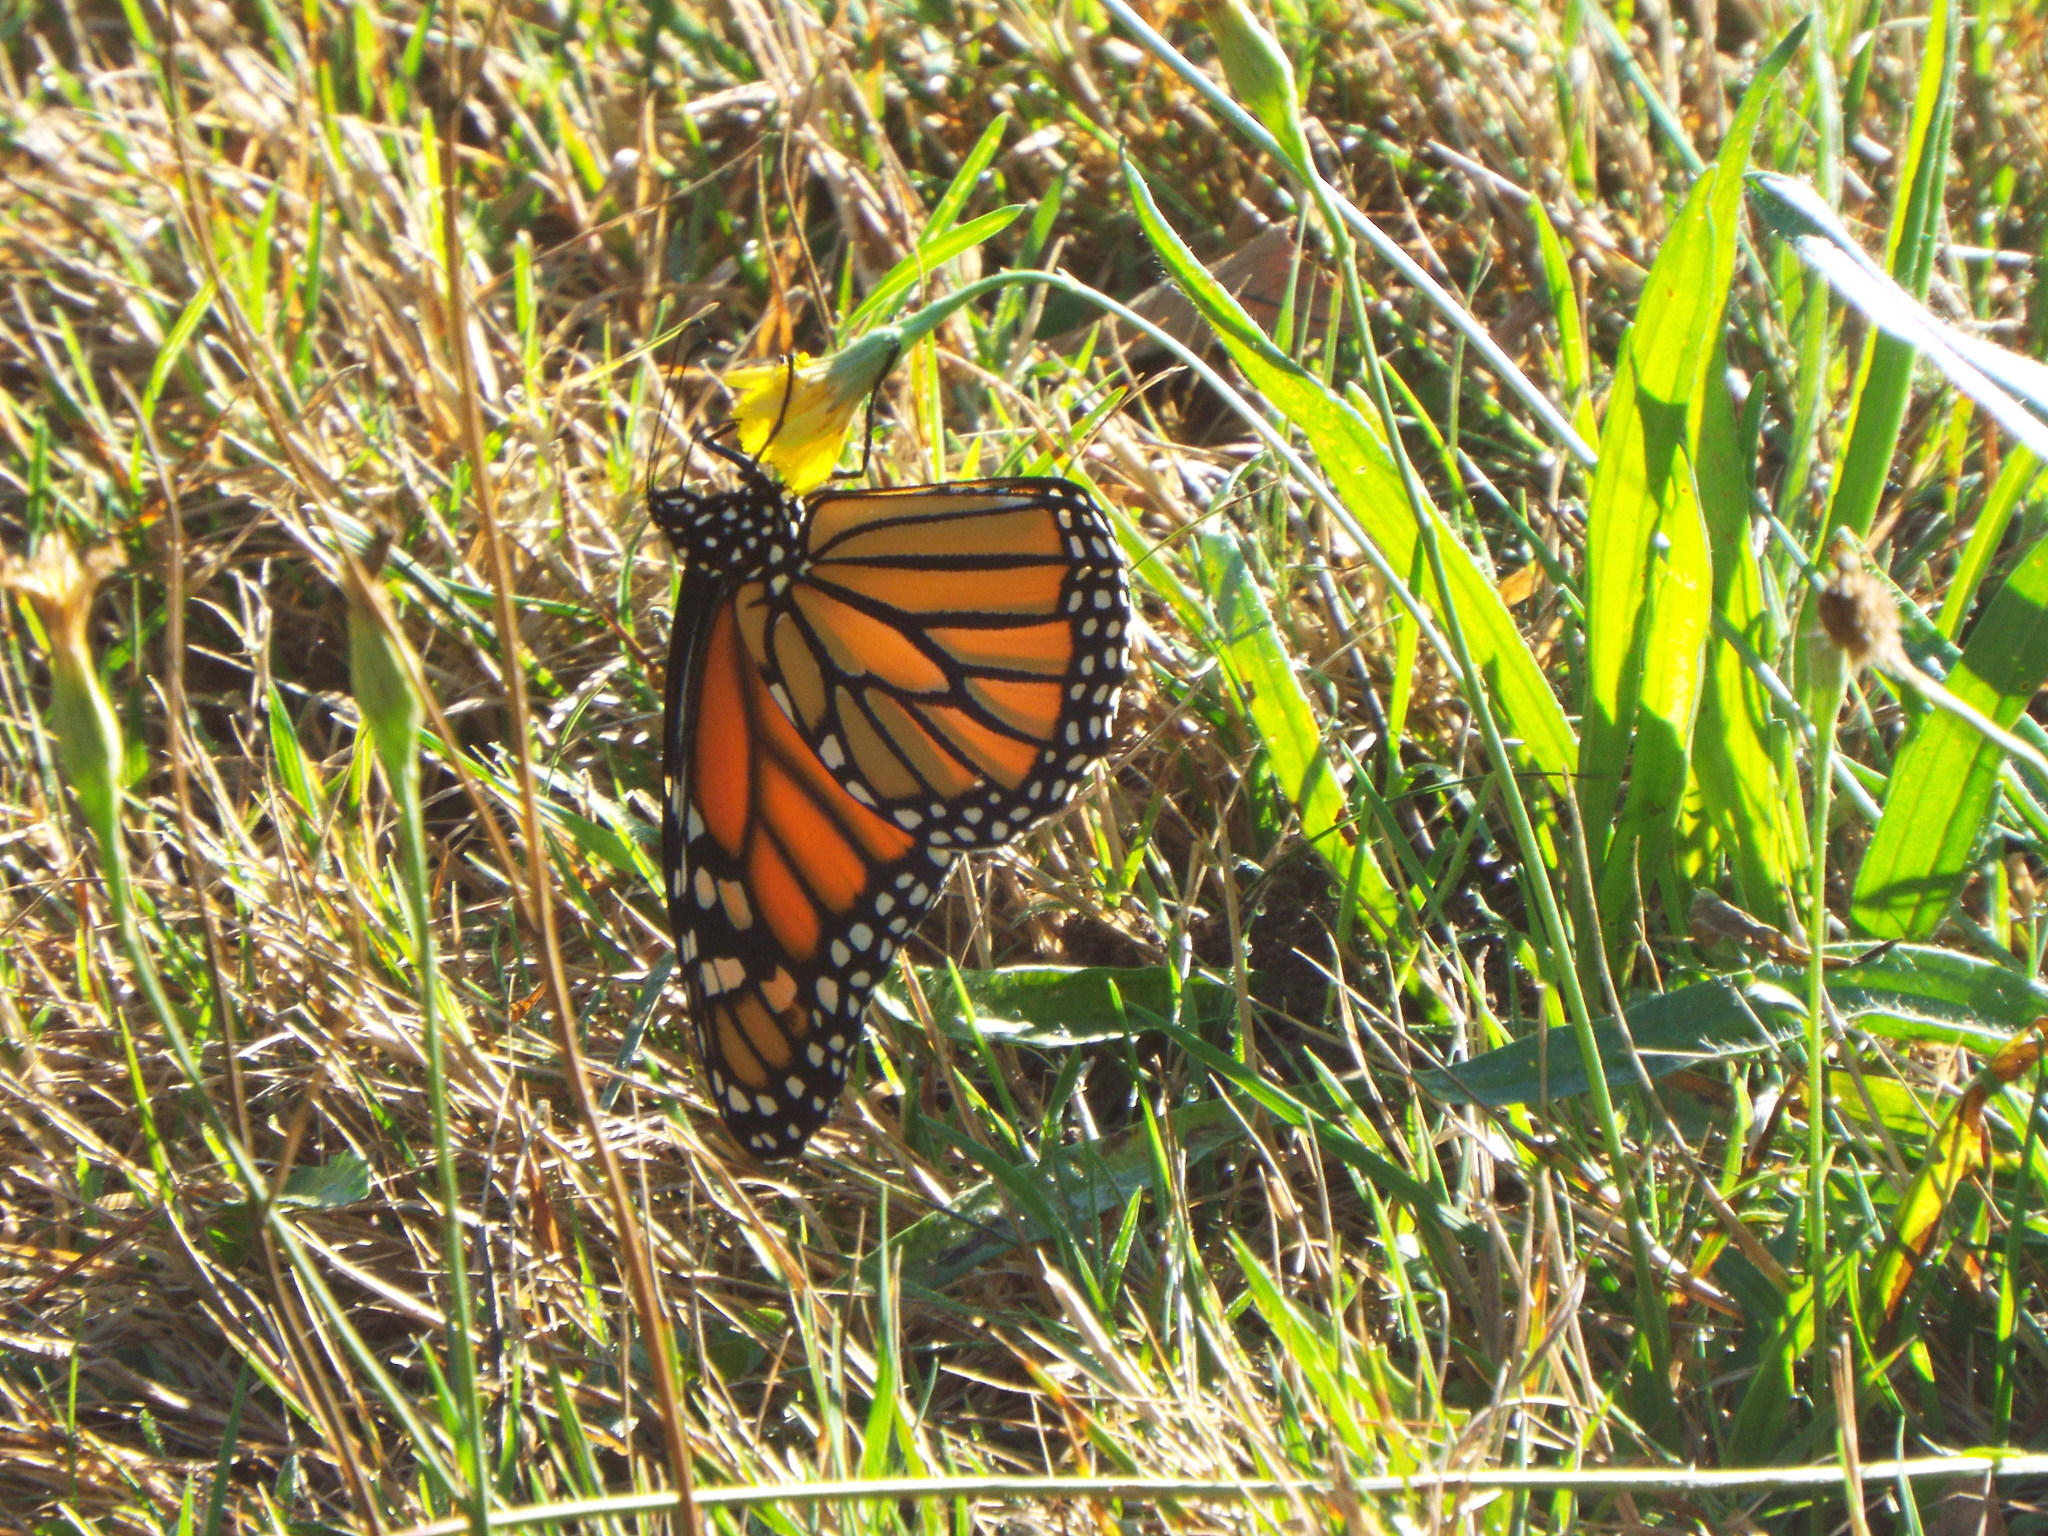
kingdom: Animalia
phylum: Arthropoda
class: Insecta
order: Lepidoptera
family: Nymphalidae
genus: Danaus
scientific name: Danaus plexippus
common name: Monarch
